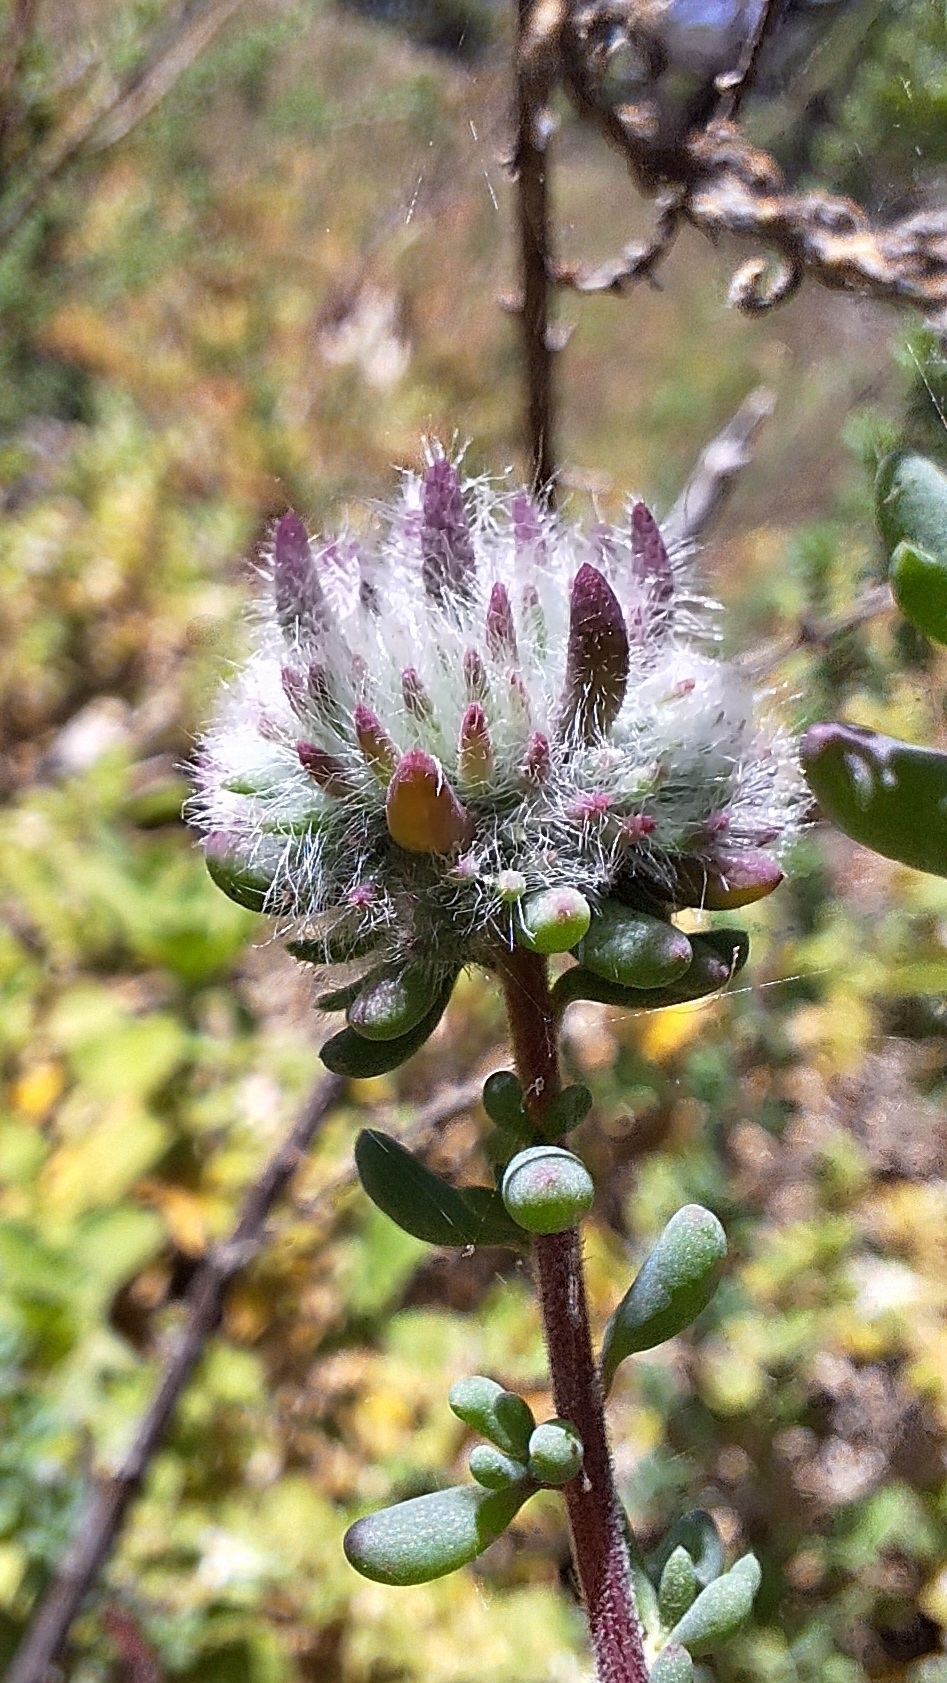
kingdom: Animalia
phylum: Arthropoda
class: Insecta
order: Diptera
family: Cecidomyiidae
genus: Dactylasioptera
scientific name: Dactylasioptera milnae
